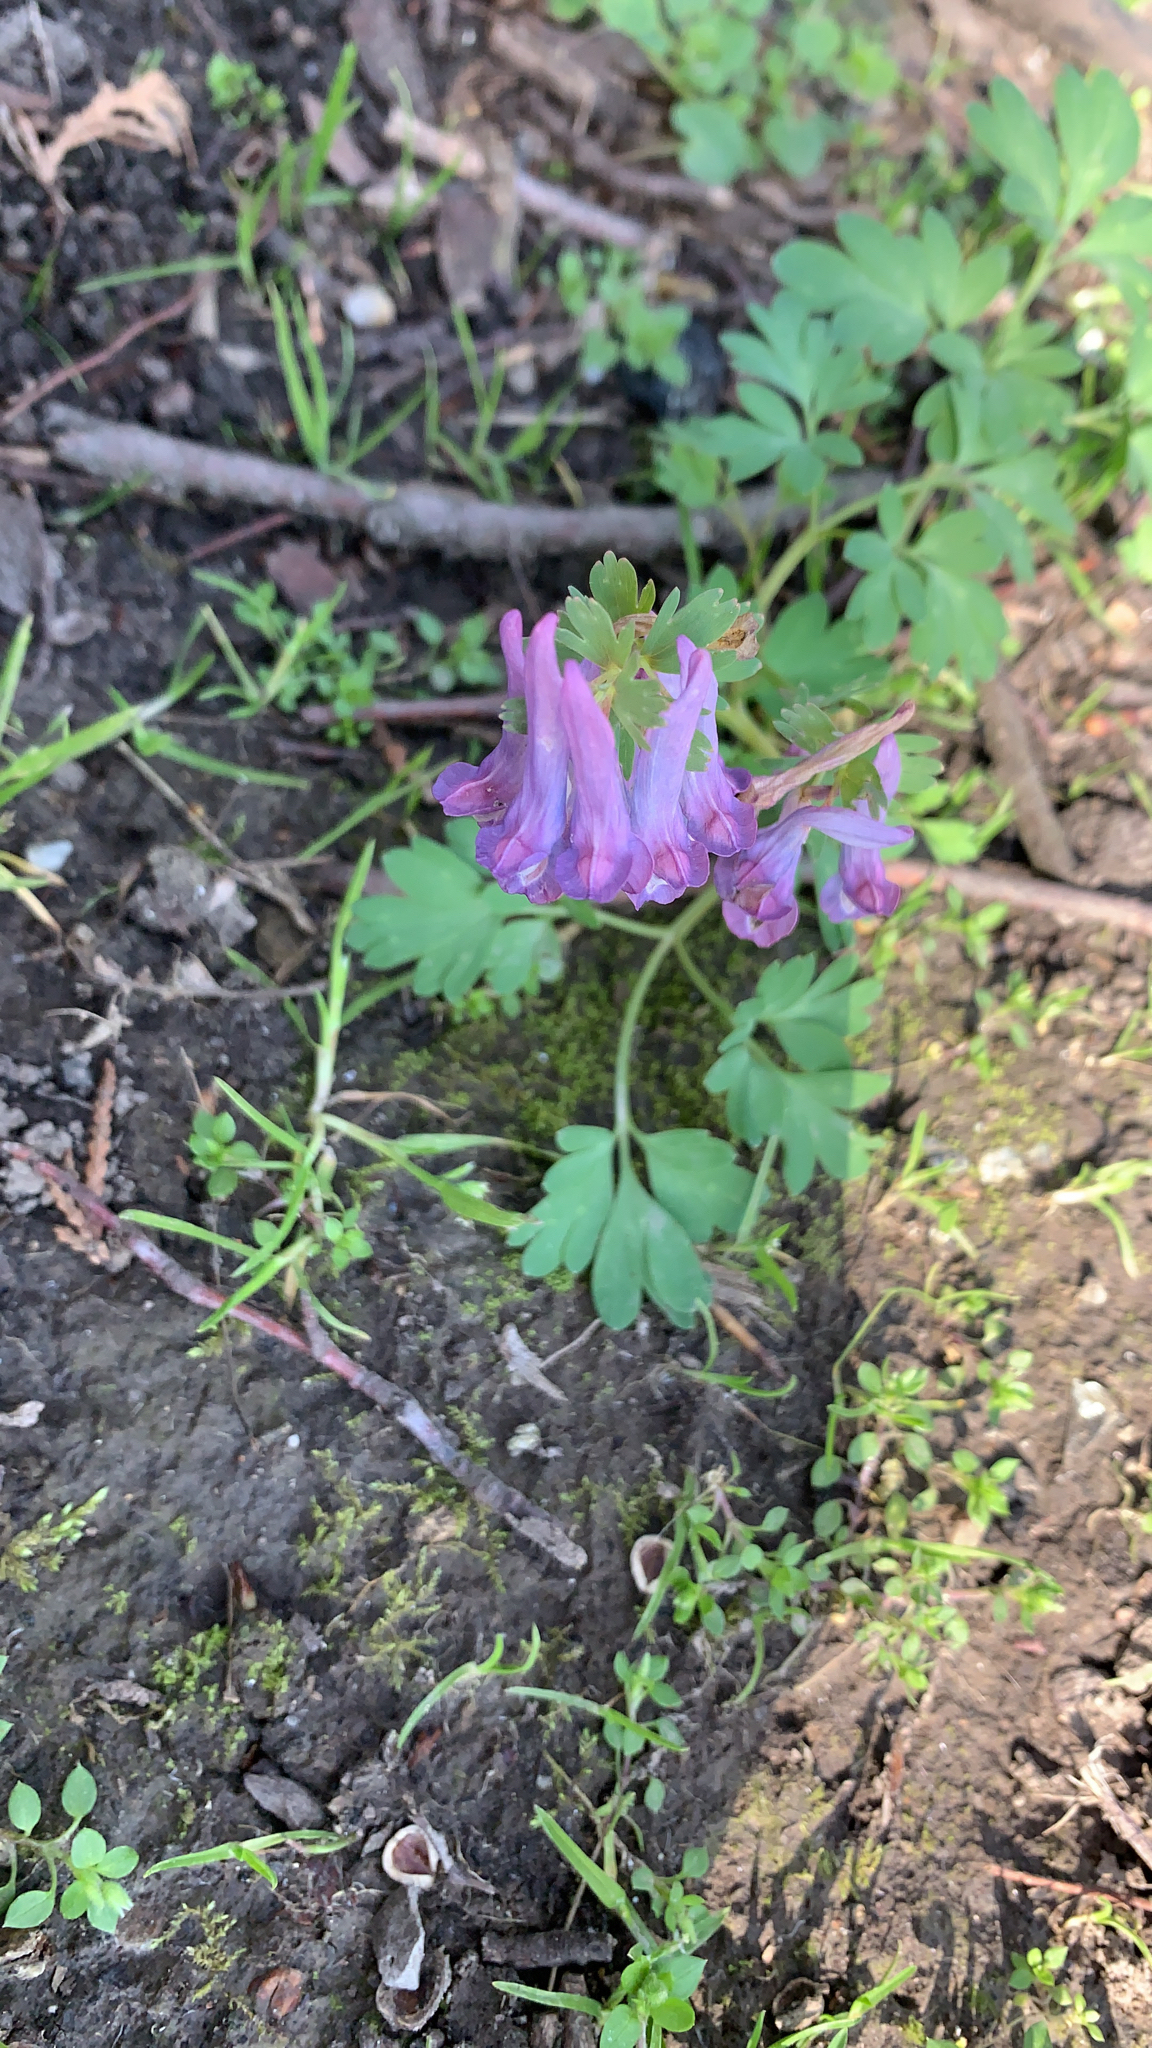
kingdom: Plantae
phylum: Tracheophyta
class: Magnoliopsida
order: Ranunculales
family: Papaveraceae
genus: Corydalis
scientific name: Corydalis solida
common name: Bird-in-a-bush
